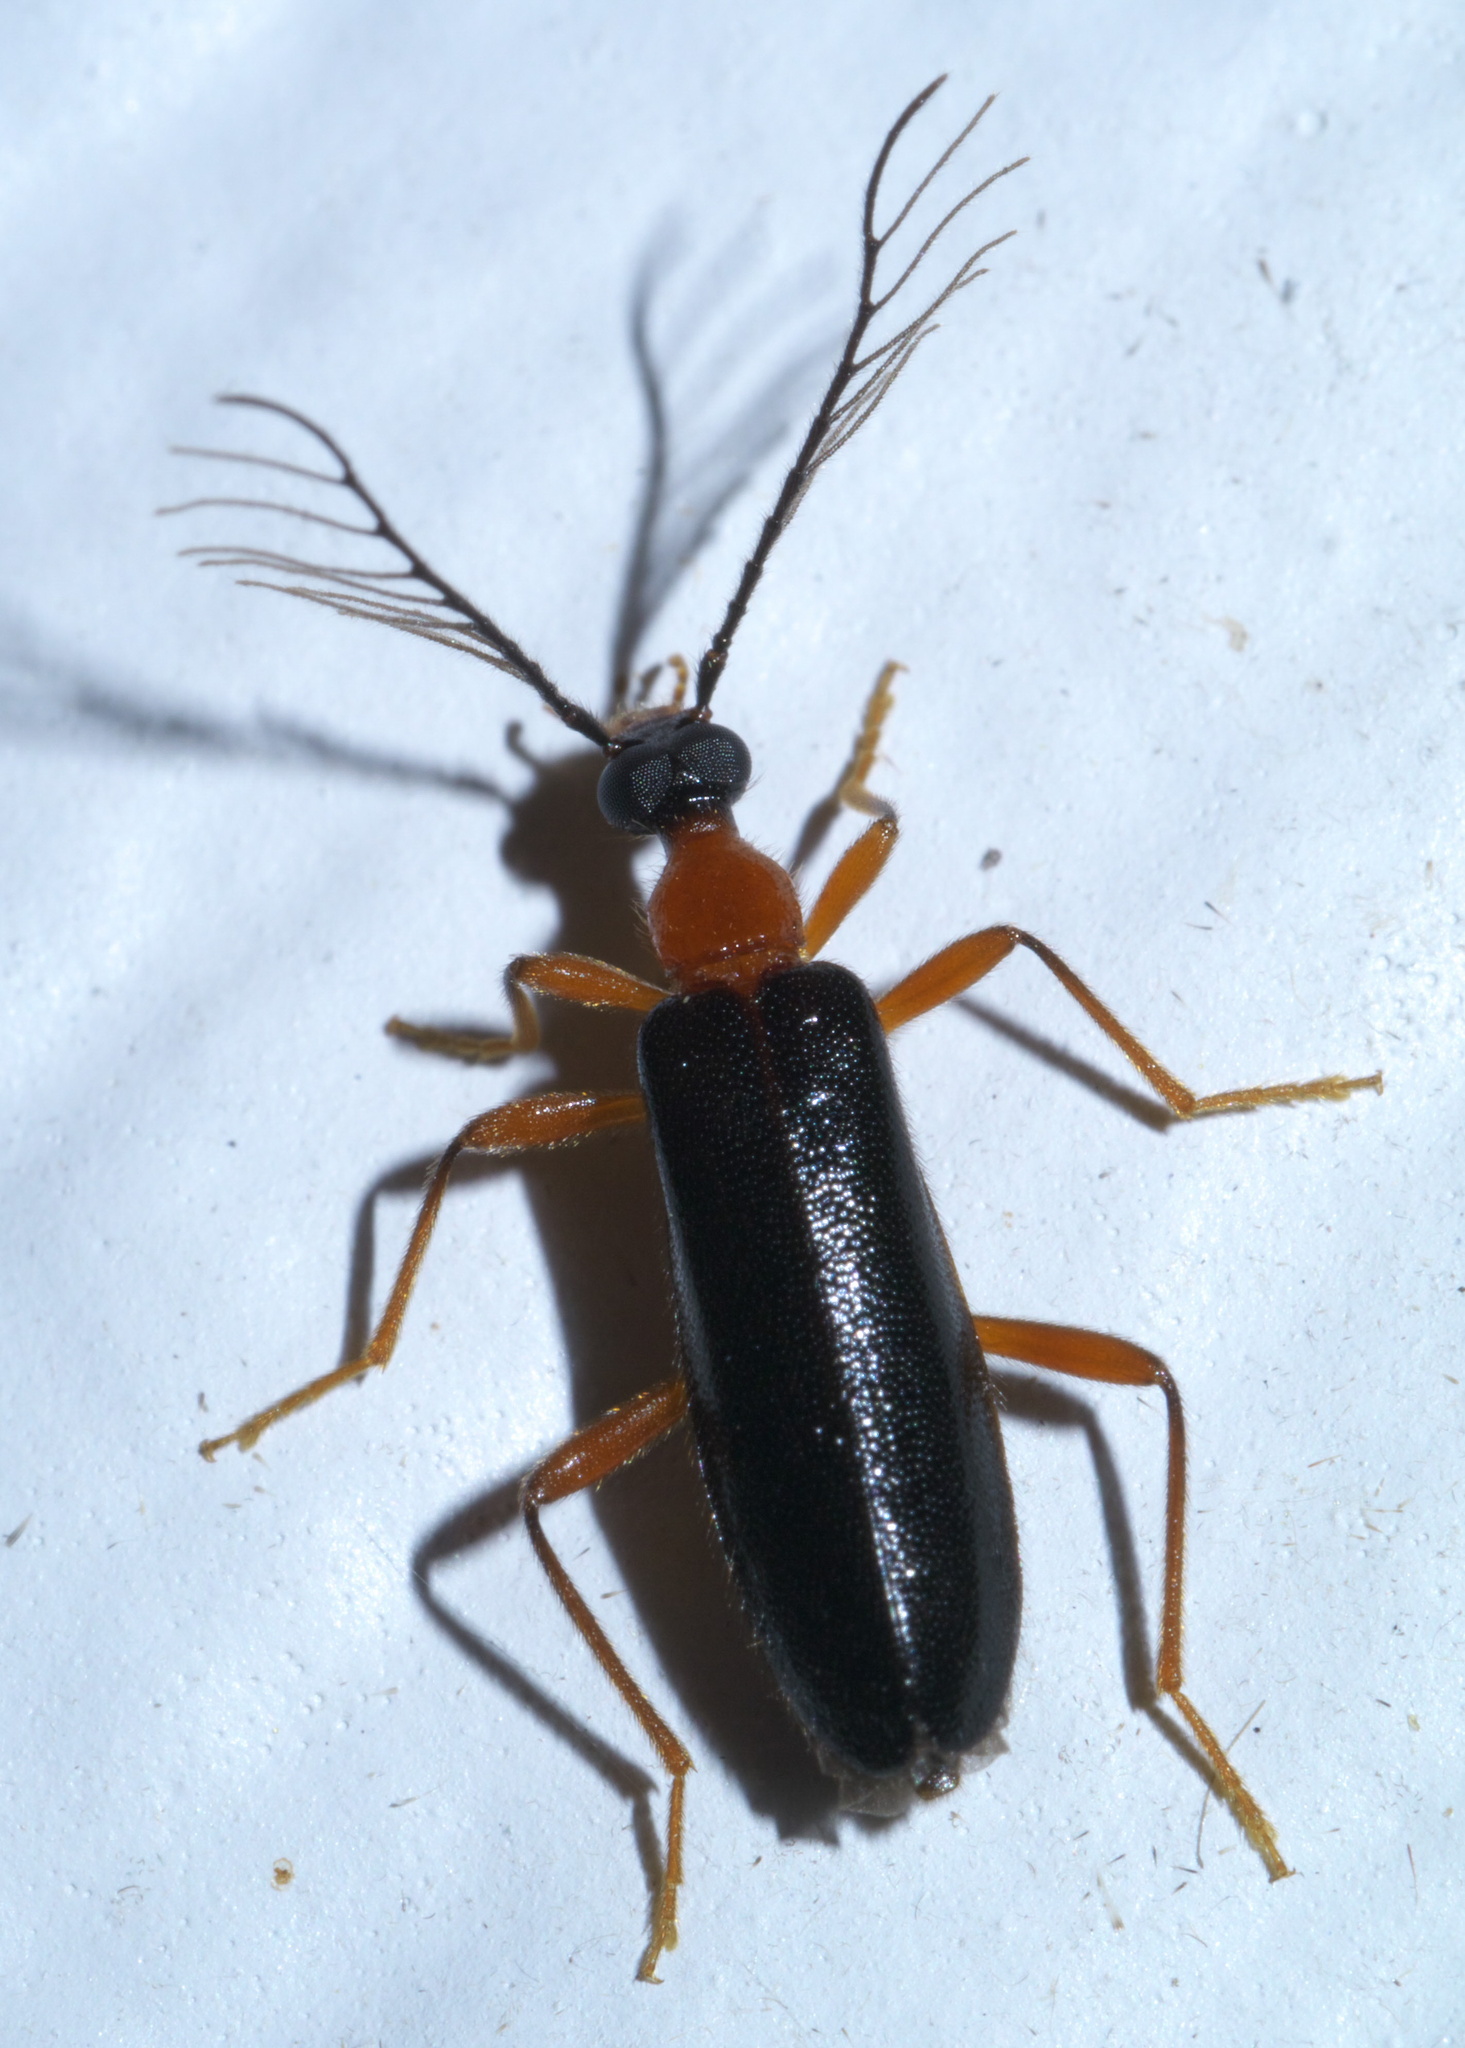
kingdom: Animalia
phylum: Arthropoda
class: Insecta
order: Coleoptera
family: Pyrochroidae
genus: Dendroides
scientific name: Dendroides canadensis
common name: Canada fire-colored beetle
